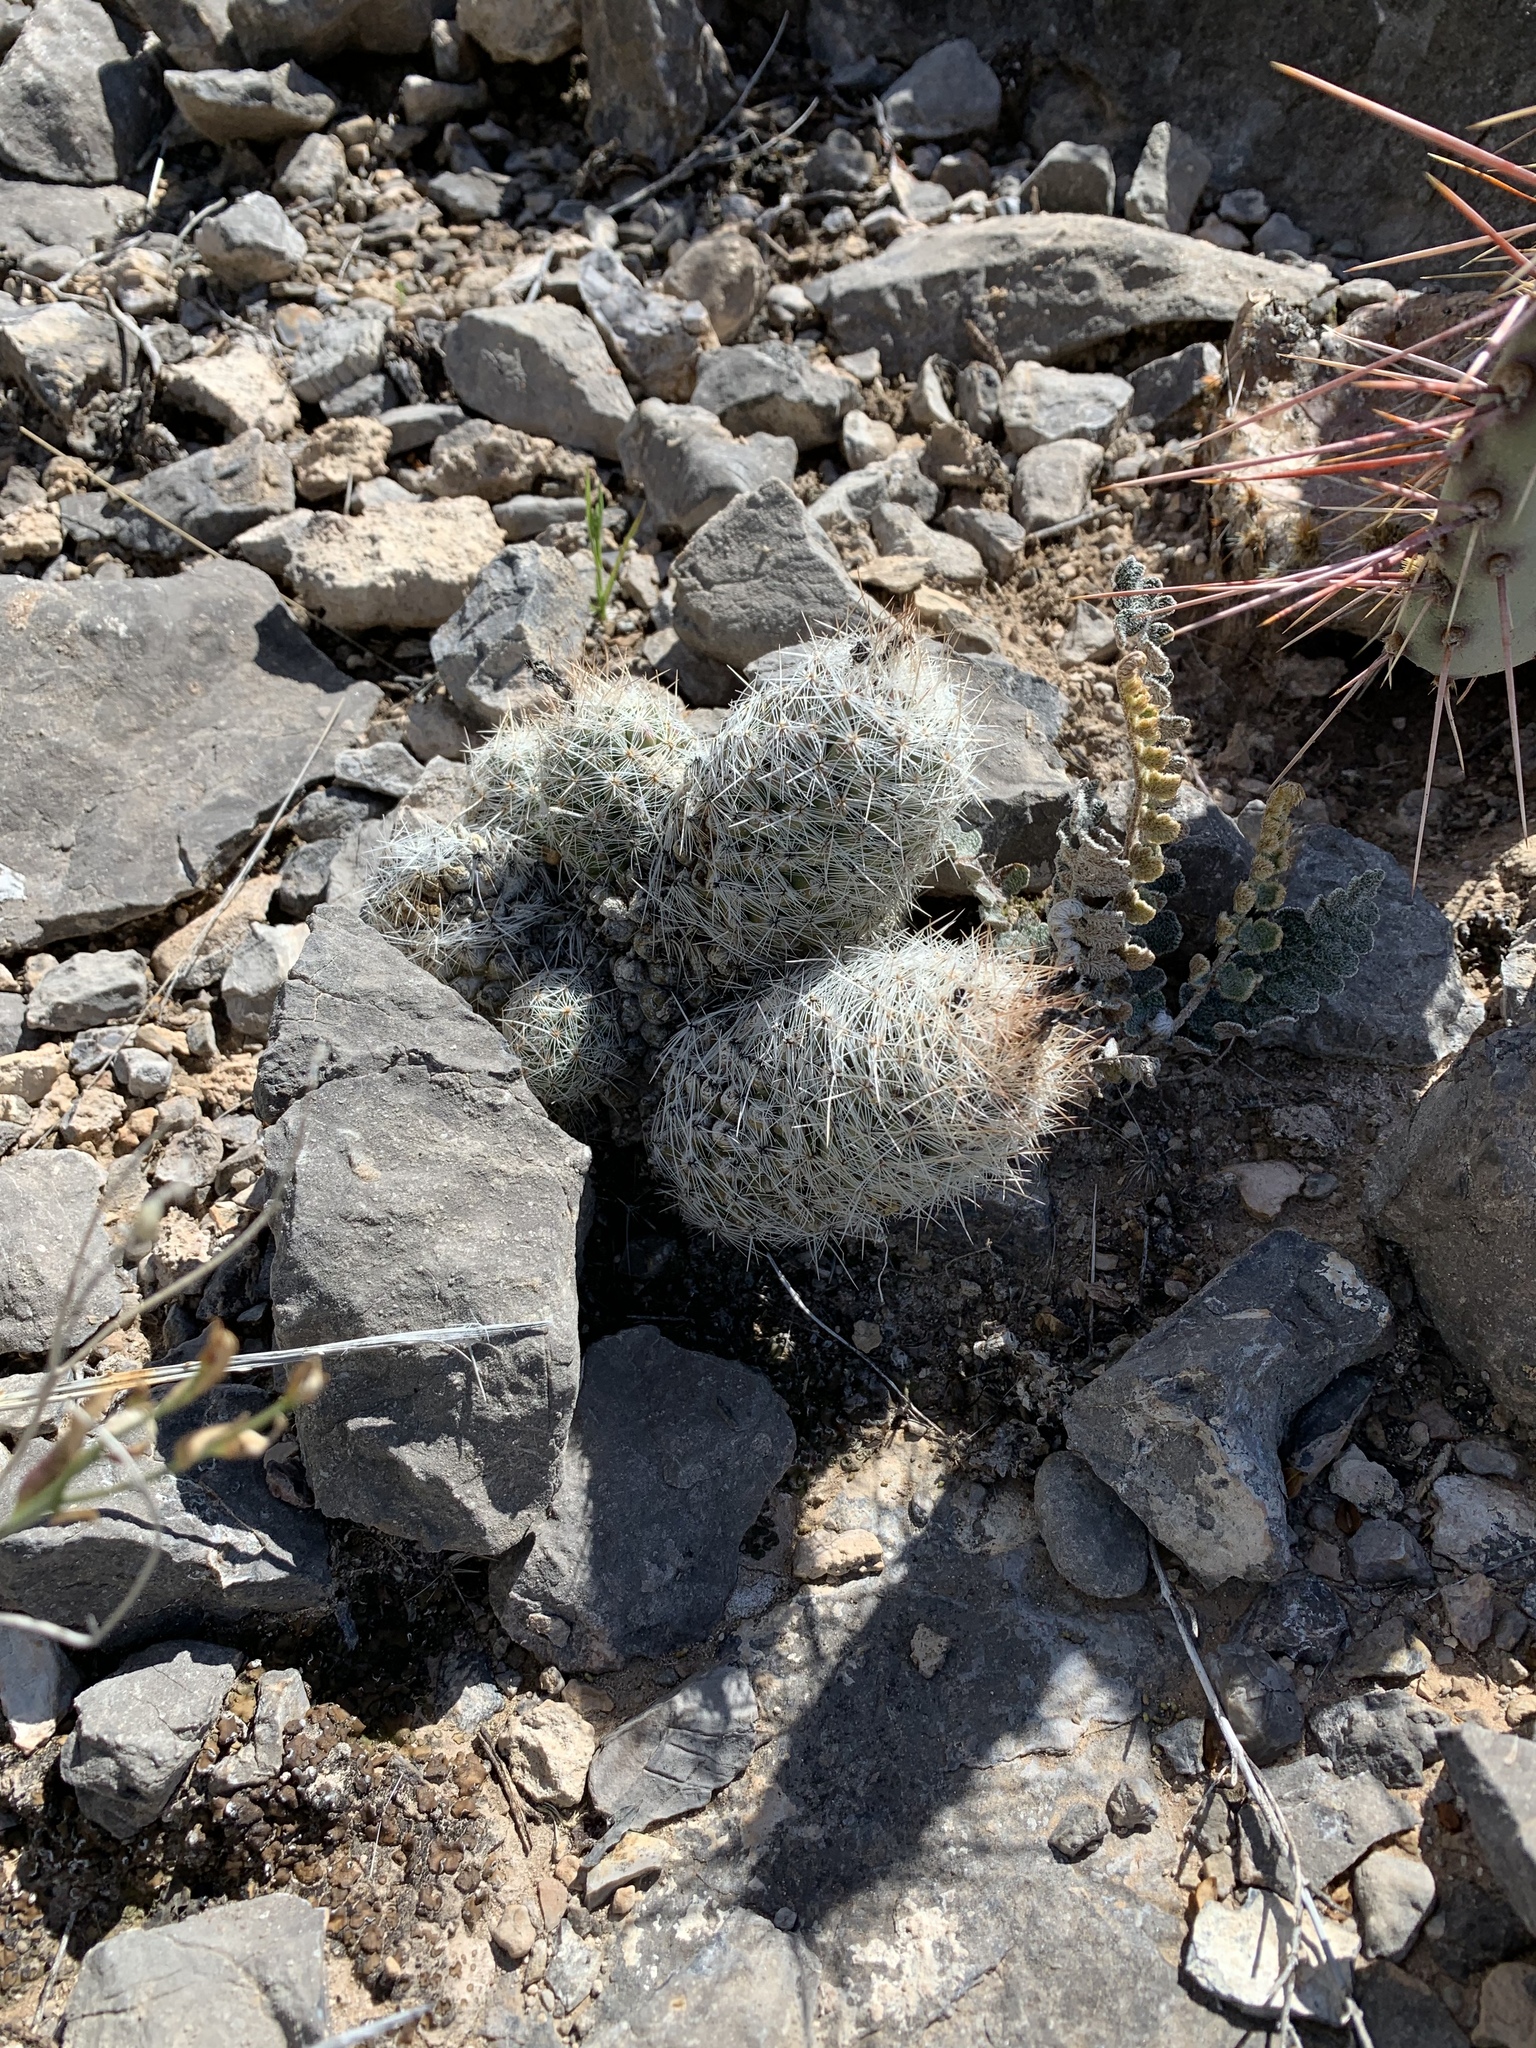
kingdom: Plantae
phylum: Tracheophyta
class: Magnoliopsida
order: Caryophyllales
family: Cactaceae
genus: Pelecyphora
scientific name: Pelecyphora tuberculosa
